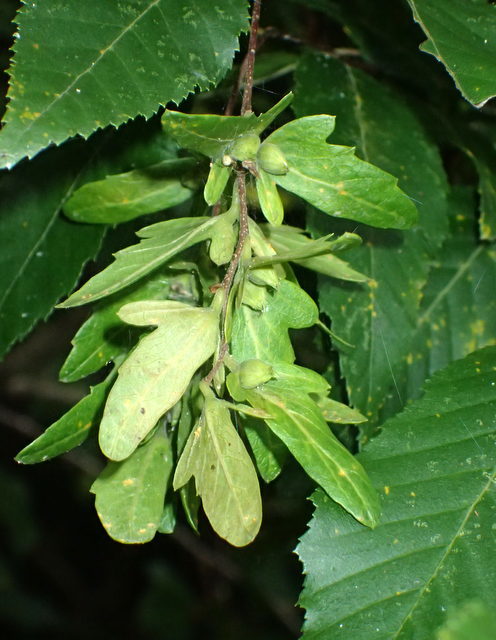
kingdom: Plantae
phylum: Tracheophyta
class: Magnoliopsida
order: Fagales
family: Betulaceae
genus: Carpinus
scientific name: Carpinus caroliniana
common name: American hornbeam
